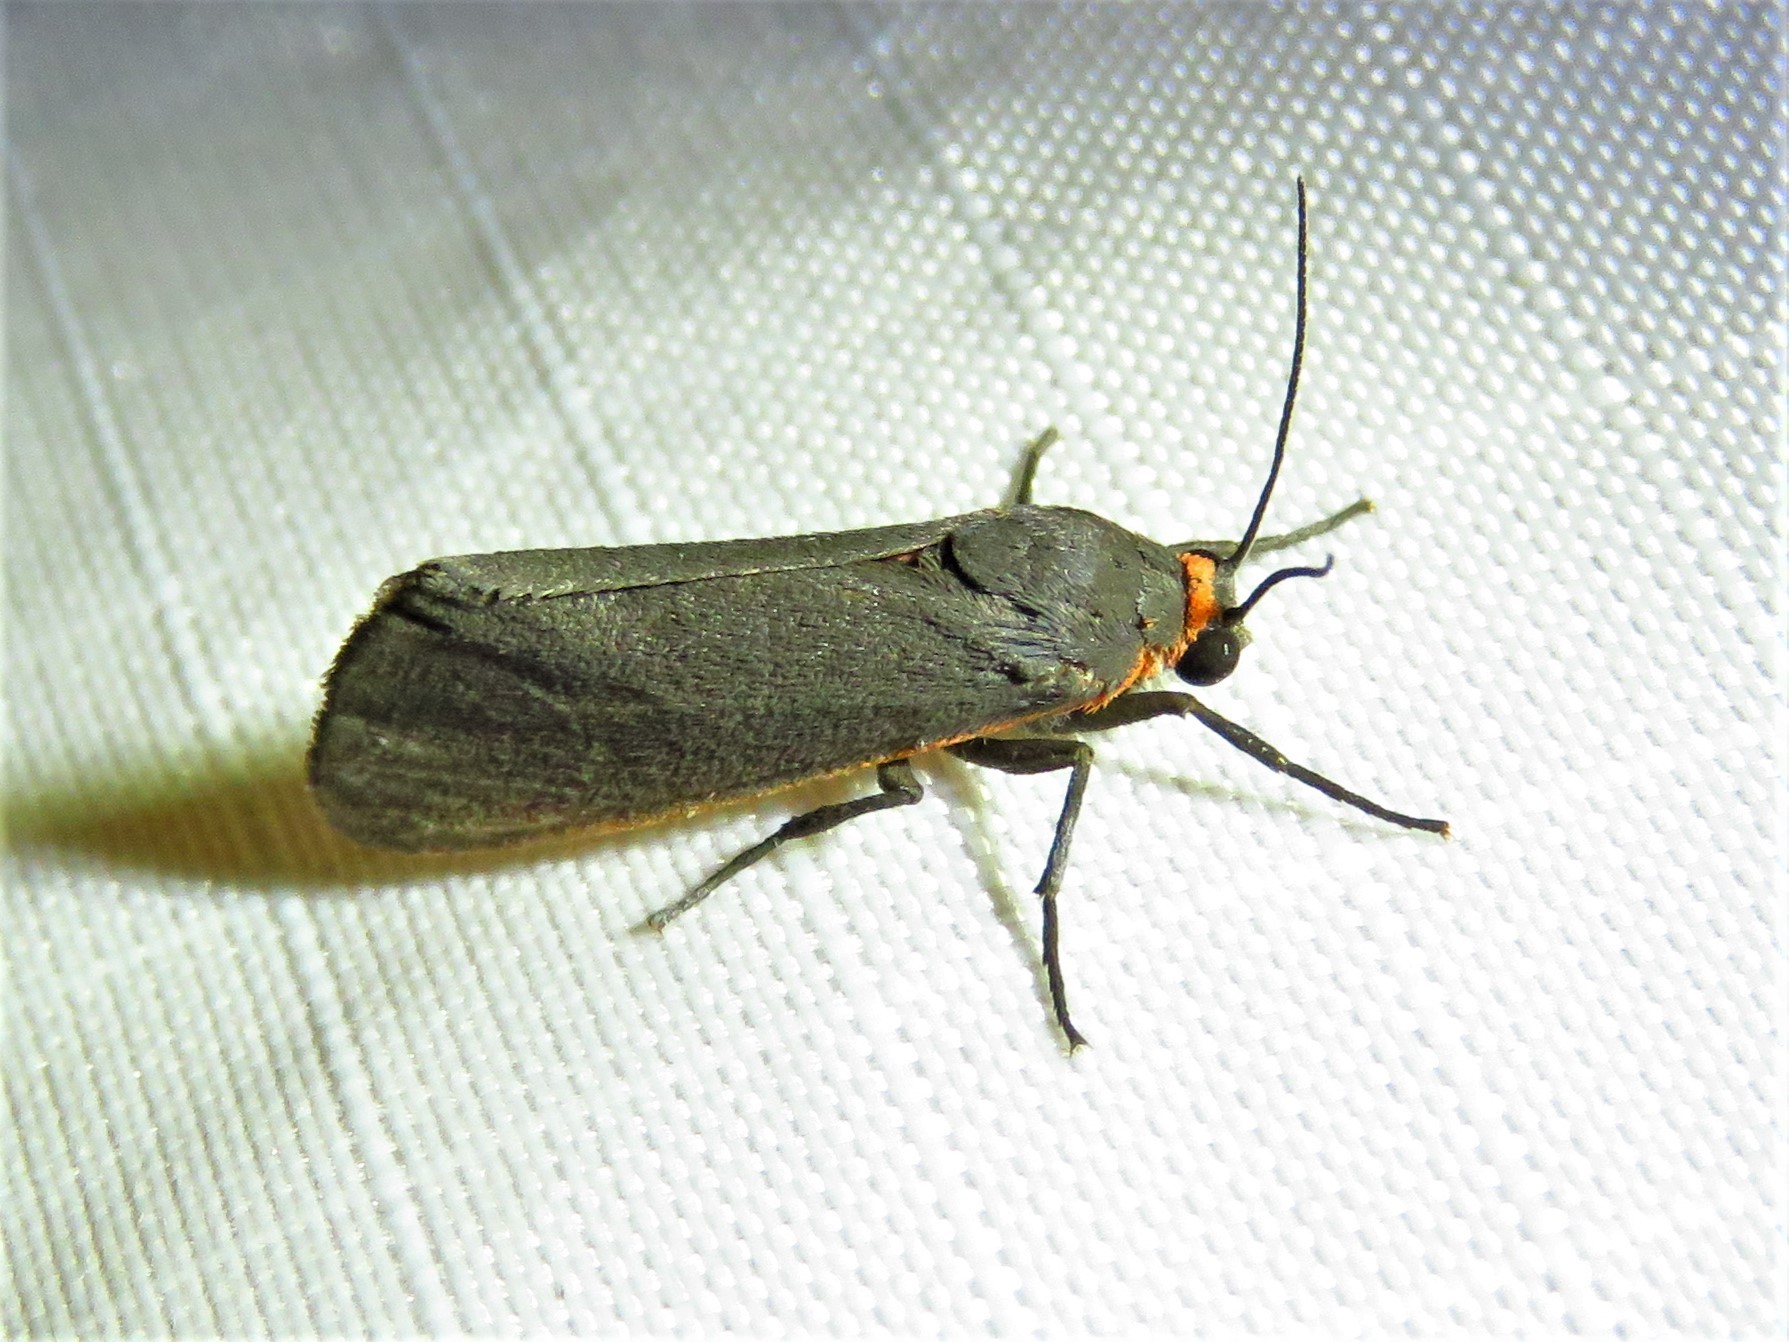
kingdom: Animalia
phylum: Arthropoda
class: Insecta
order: Lepidoptera
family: Erebidae
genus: Virbia
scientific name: Virbia laeta
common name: Joyful holomelina moth
